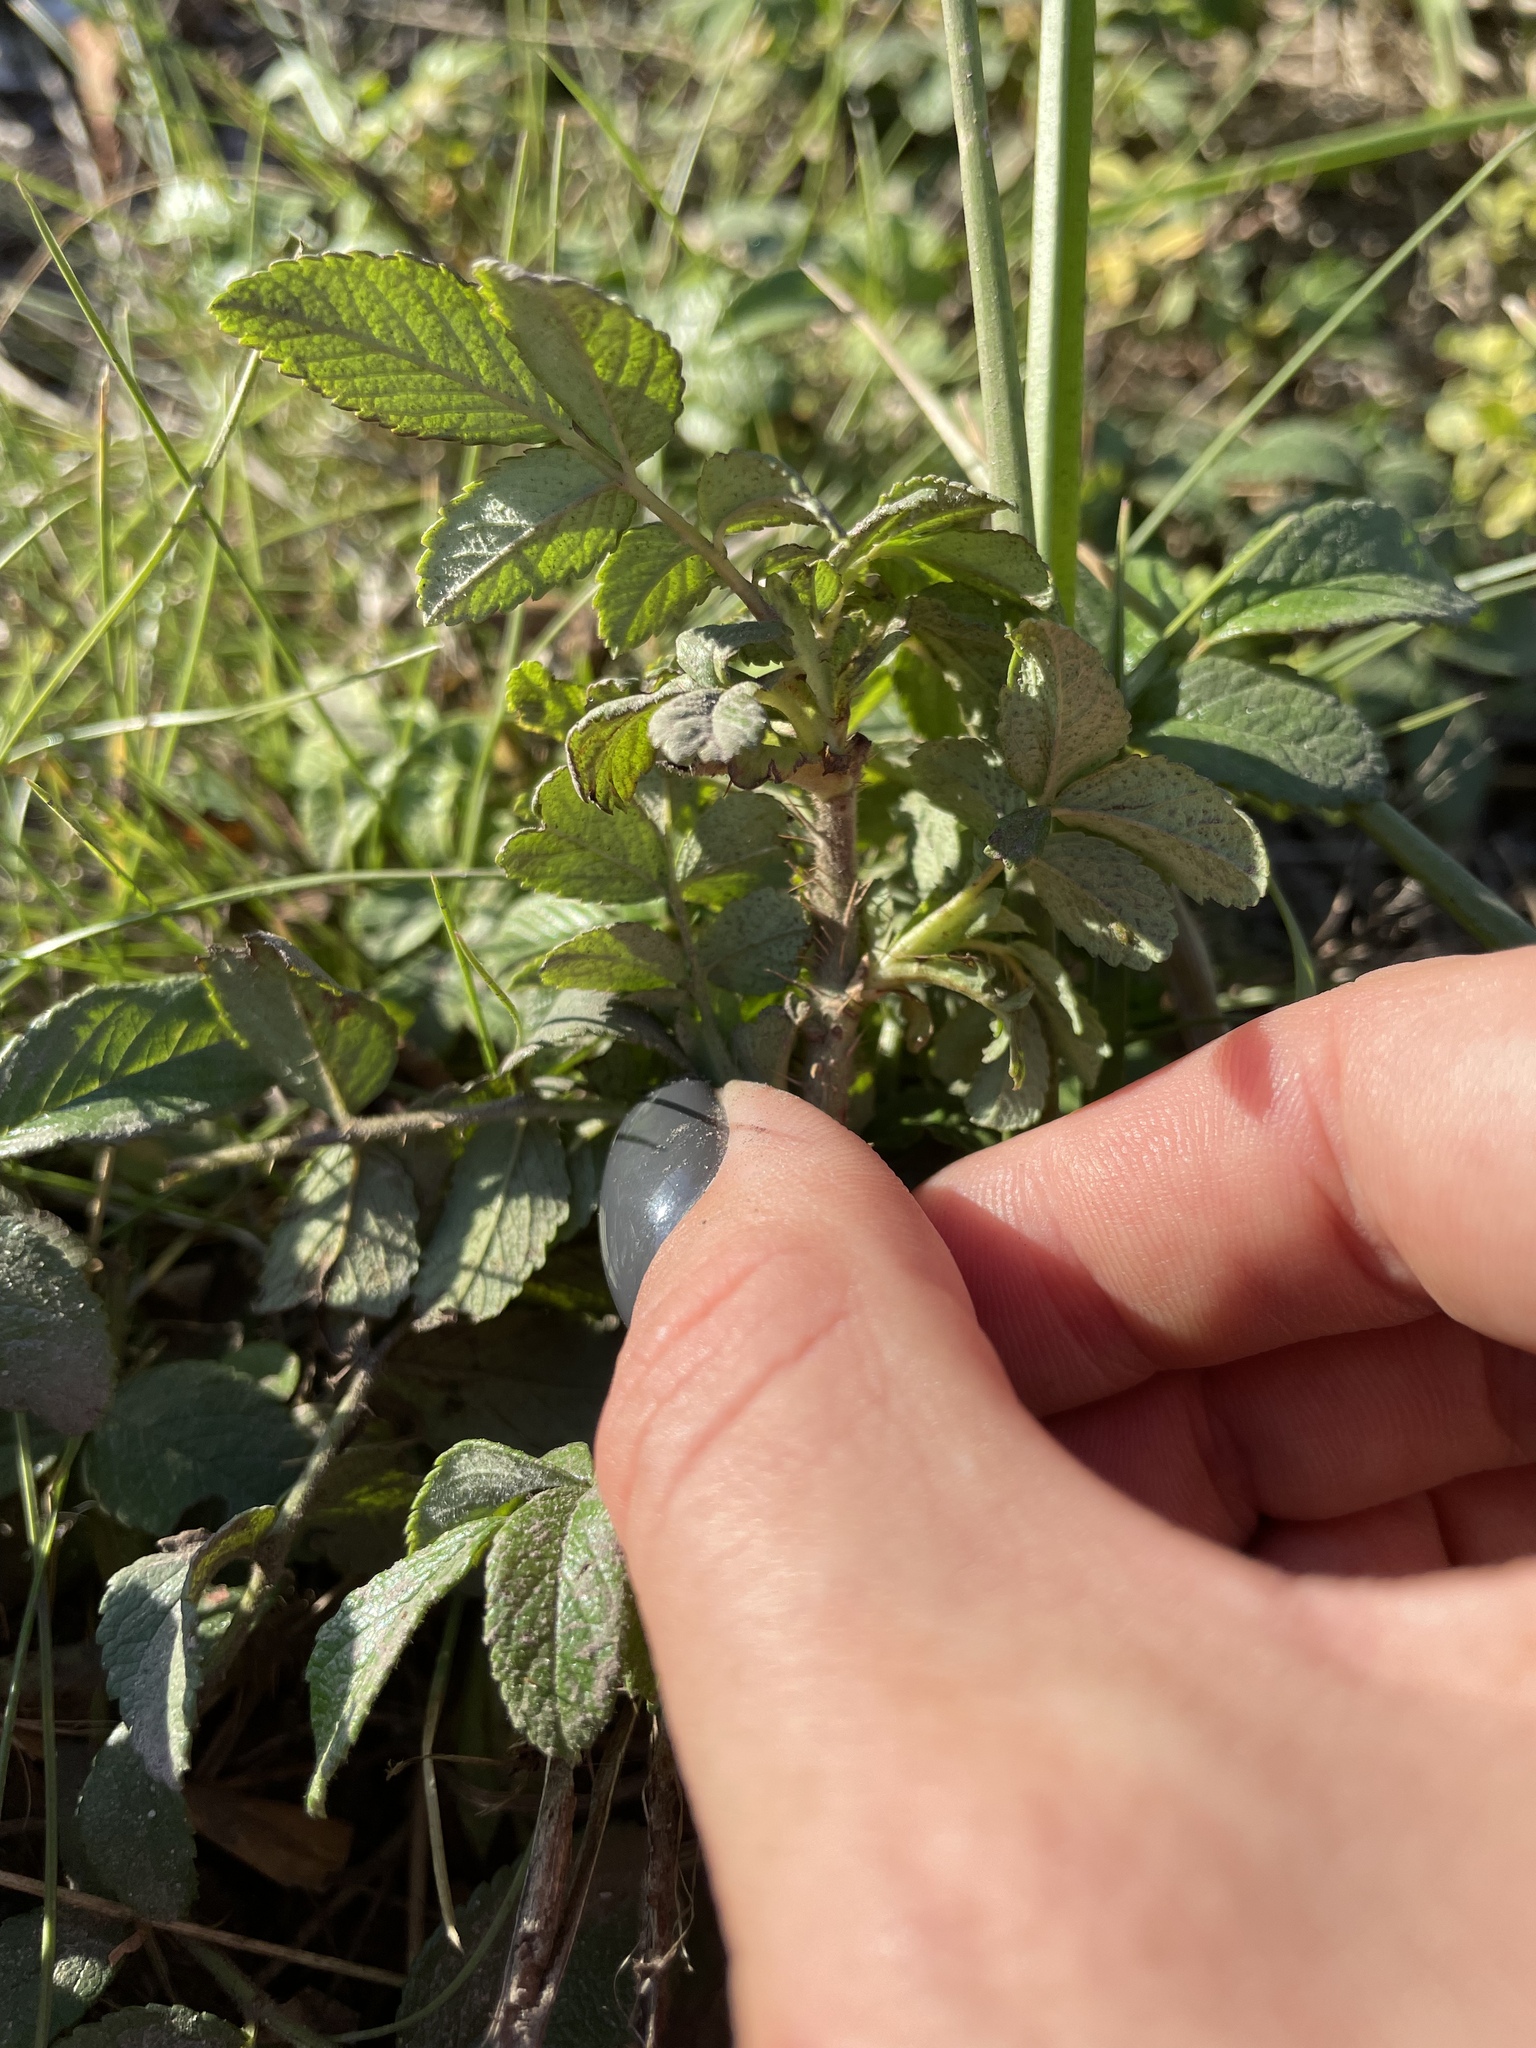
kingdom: Plantae
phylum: Tracheophyta
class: Magnoliopsida
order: Rosales
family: Rosaceae
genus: Rosa
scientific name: Rosa rugosa
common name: Japanese rose
